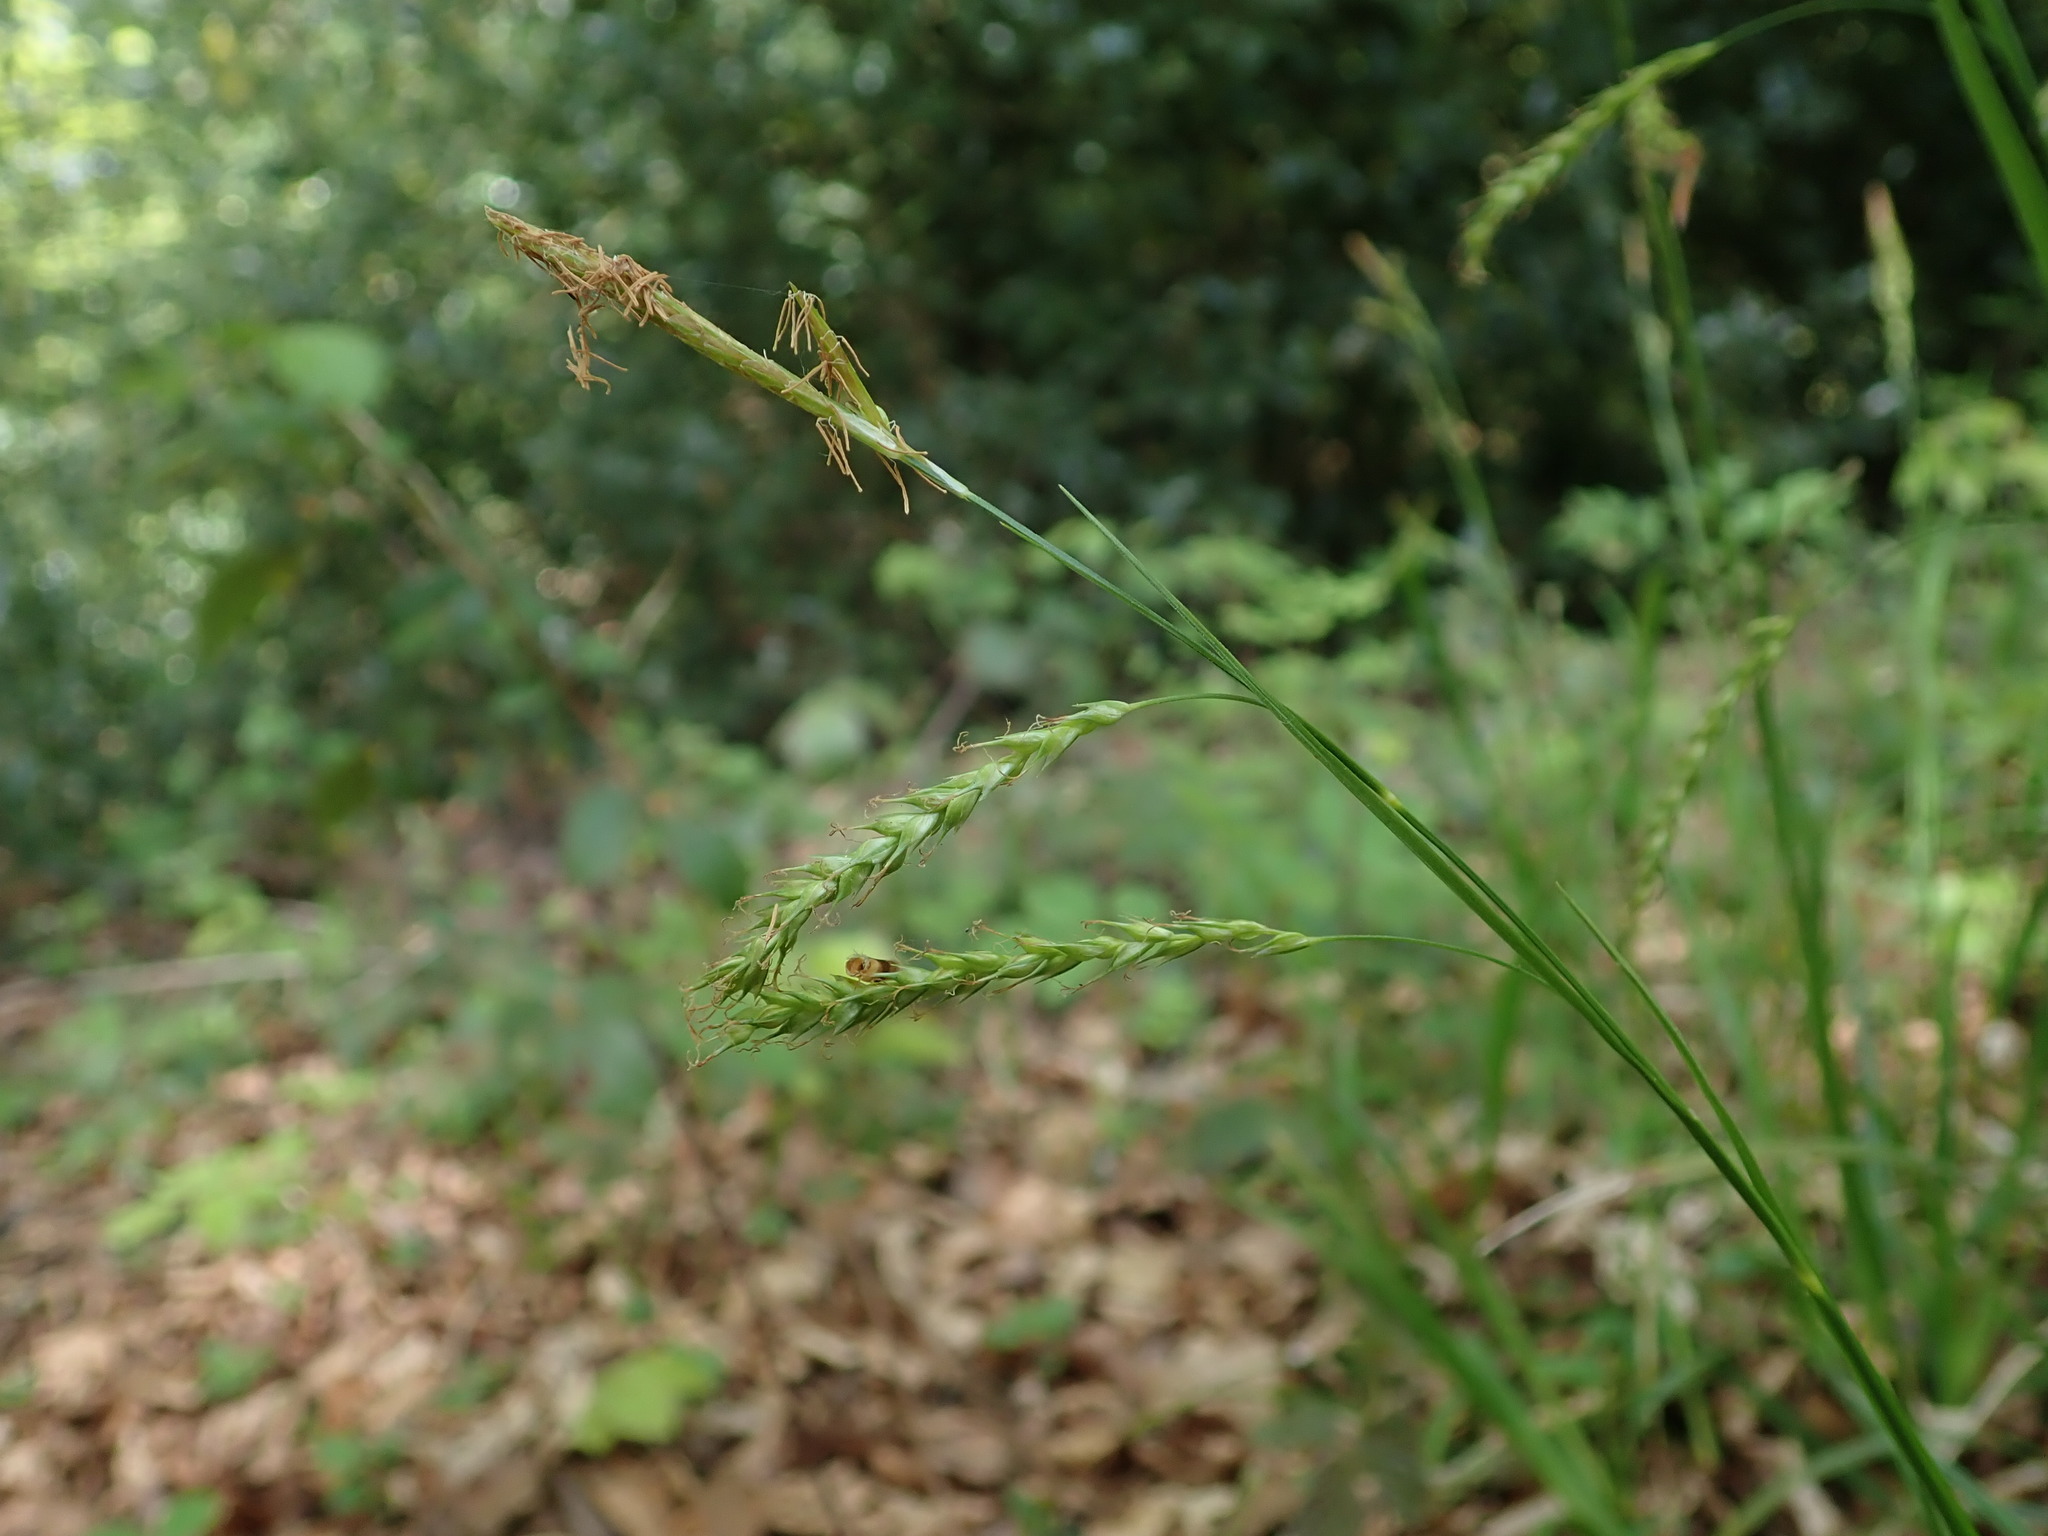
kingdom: Plantae
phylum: Tracheophyta
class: Liliopsida
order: Poales
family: Cyperaceae
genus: Carex
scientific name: Carex sylvatica
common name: Wood-sedge
